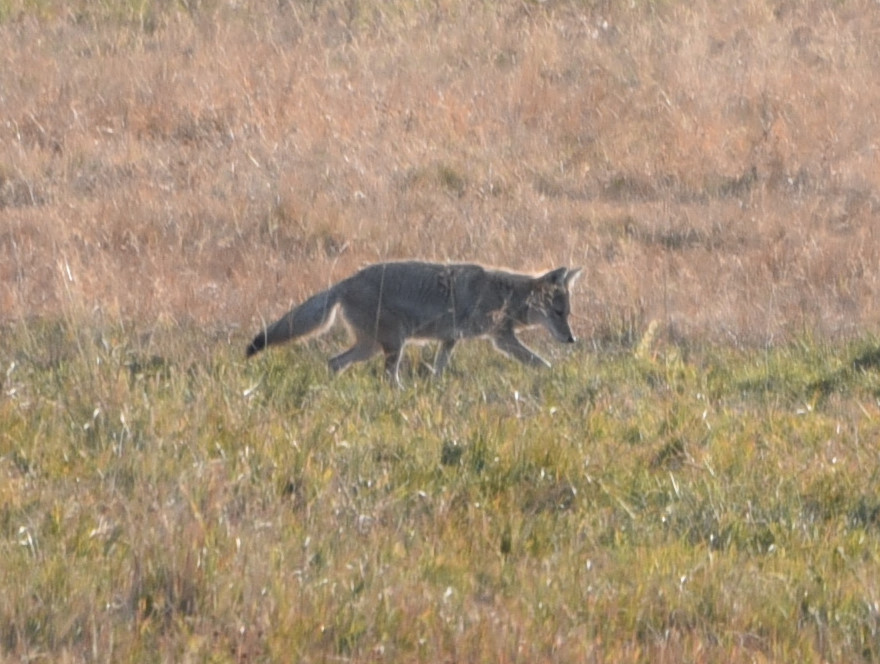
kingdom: Animalia
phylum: Chordata
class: Mammalia
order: Carnivora
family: Canidae
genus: Canis
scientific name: Canis latrans
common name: Coyote
